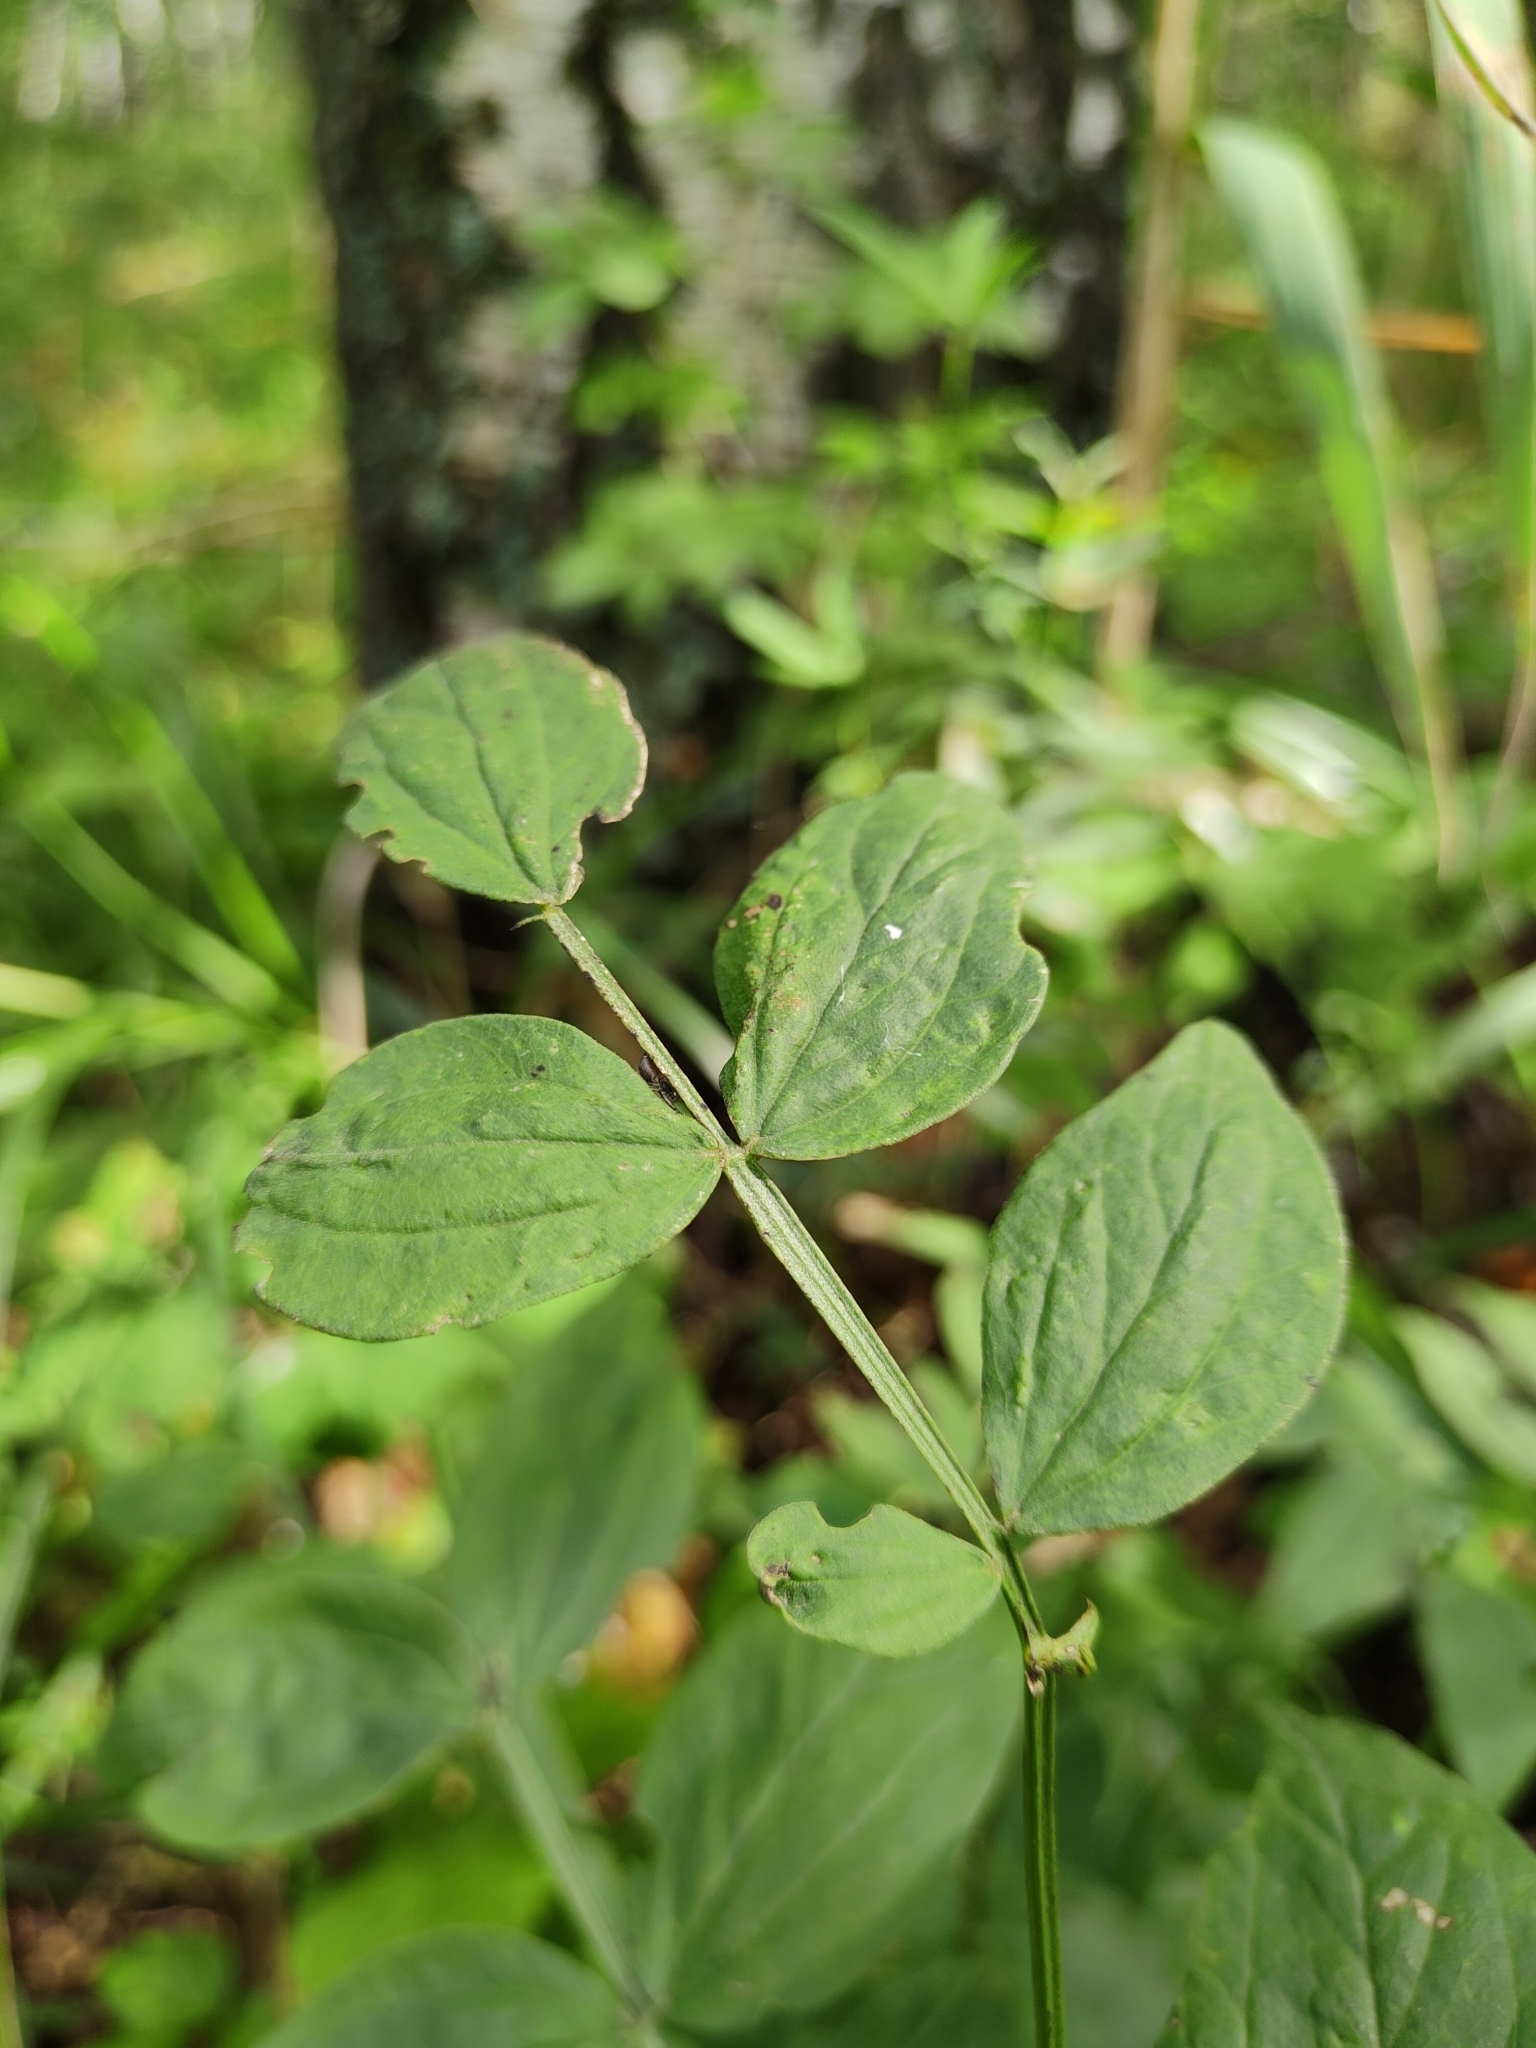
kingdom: Plantae
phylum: Tracheophyta
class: Magnoliopsida
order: Fabales
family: Fabaceae
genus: Lathyrus
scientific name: Lathyrus vernus
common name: Spring pea
